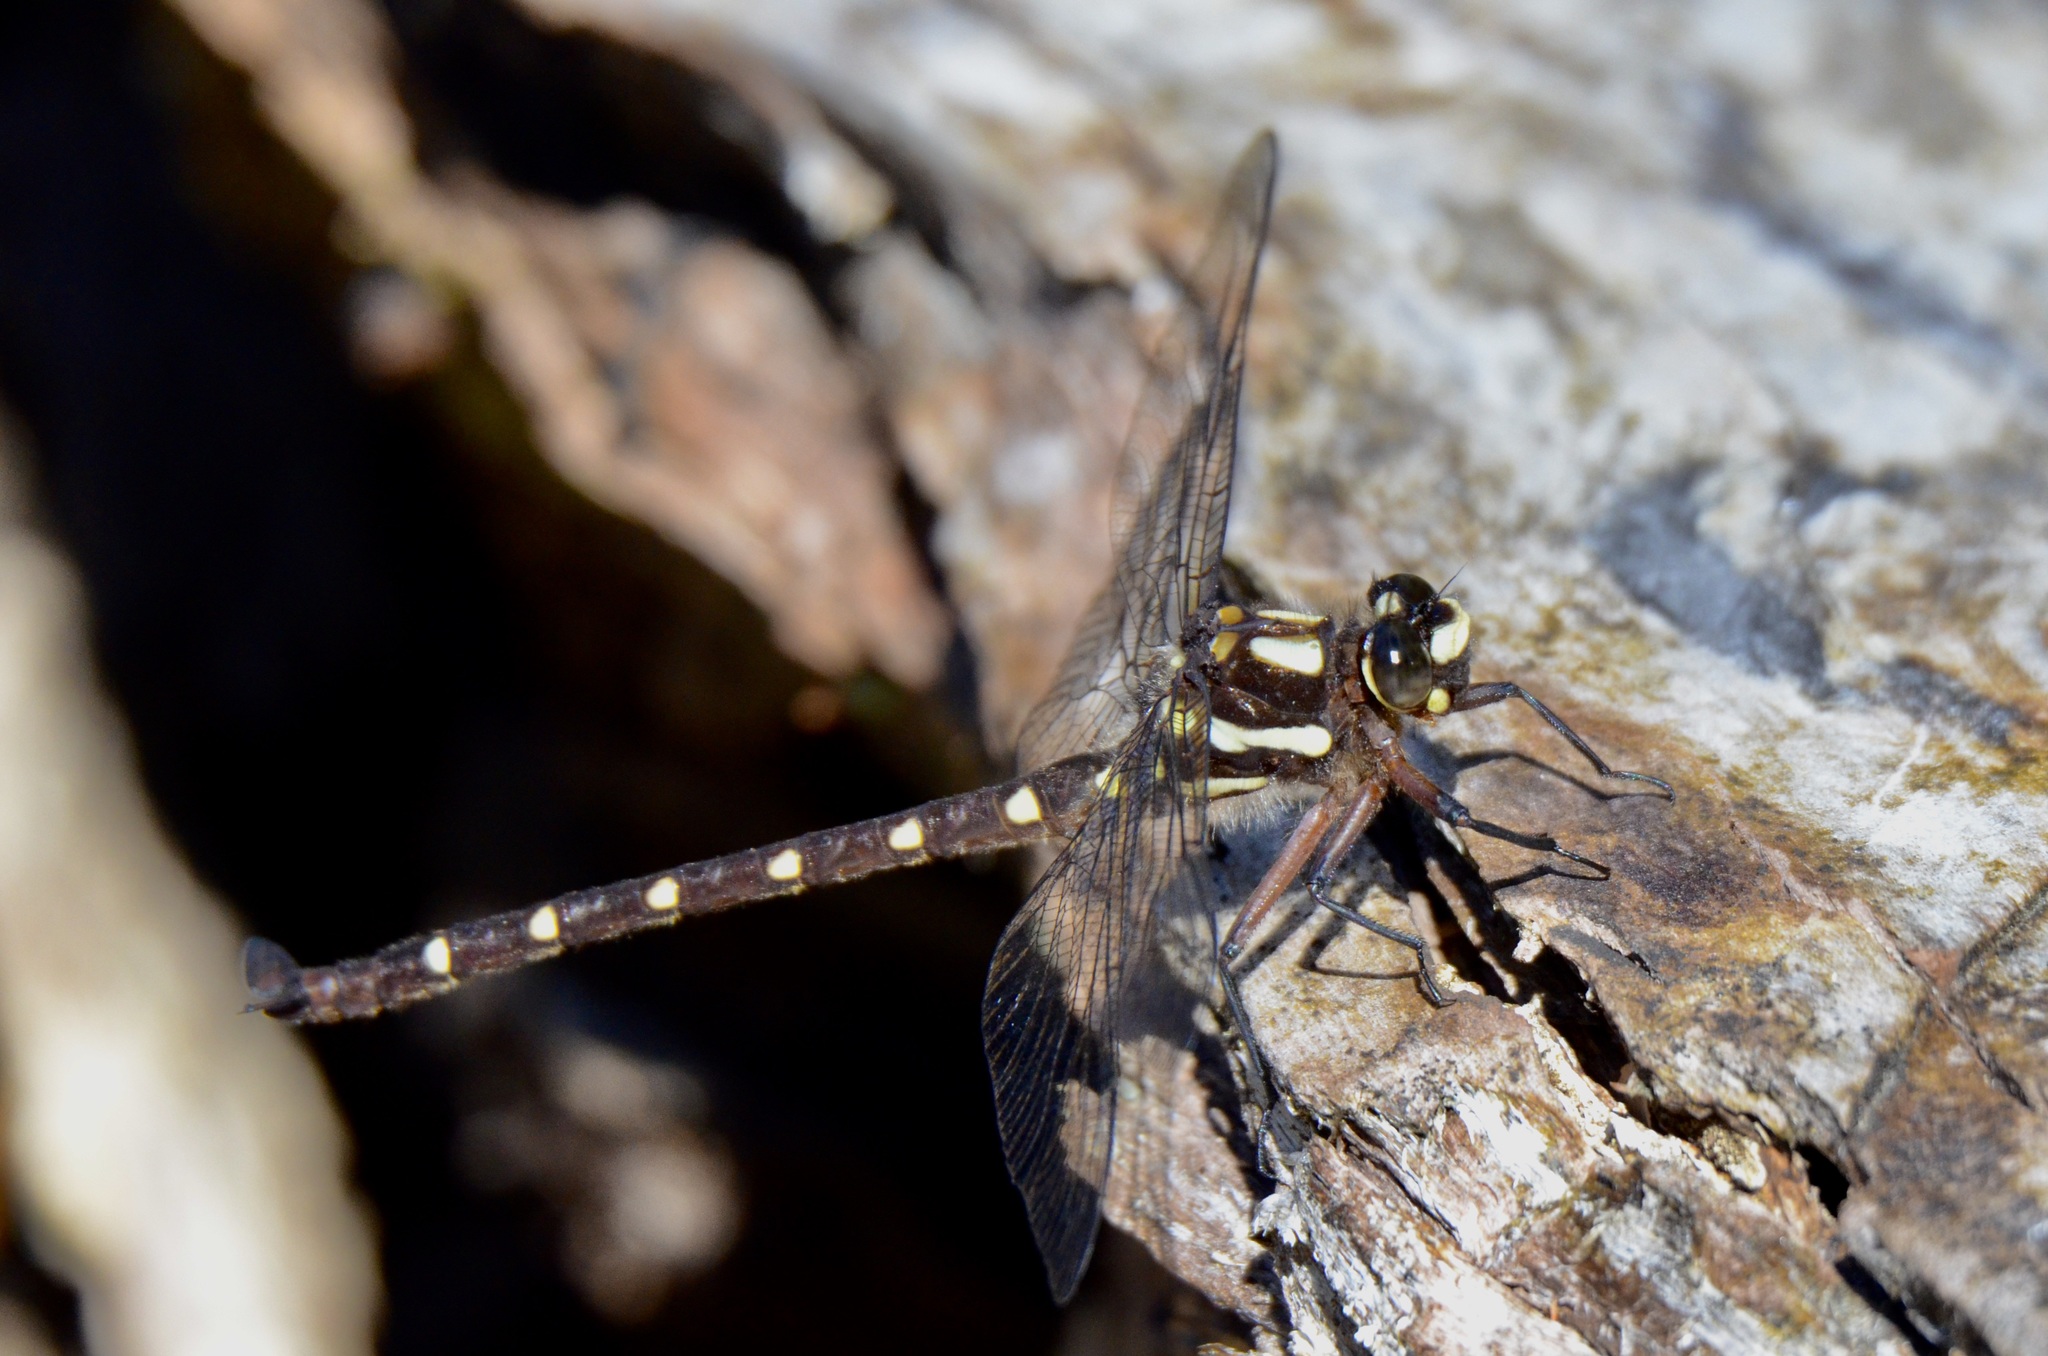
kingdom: Animalia
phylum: Arthropoda
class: Insecta
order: Odonata
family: Petaluridae
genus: Uropetala
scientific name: Uropetala carovei
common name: Bush giant dragonfly
